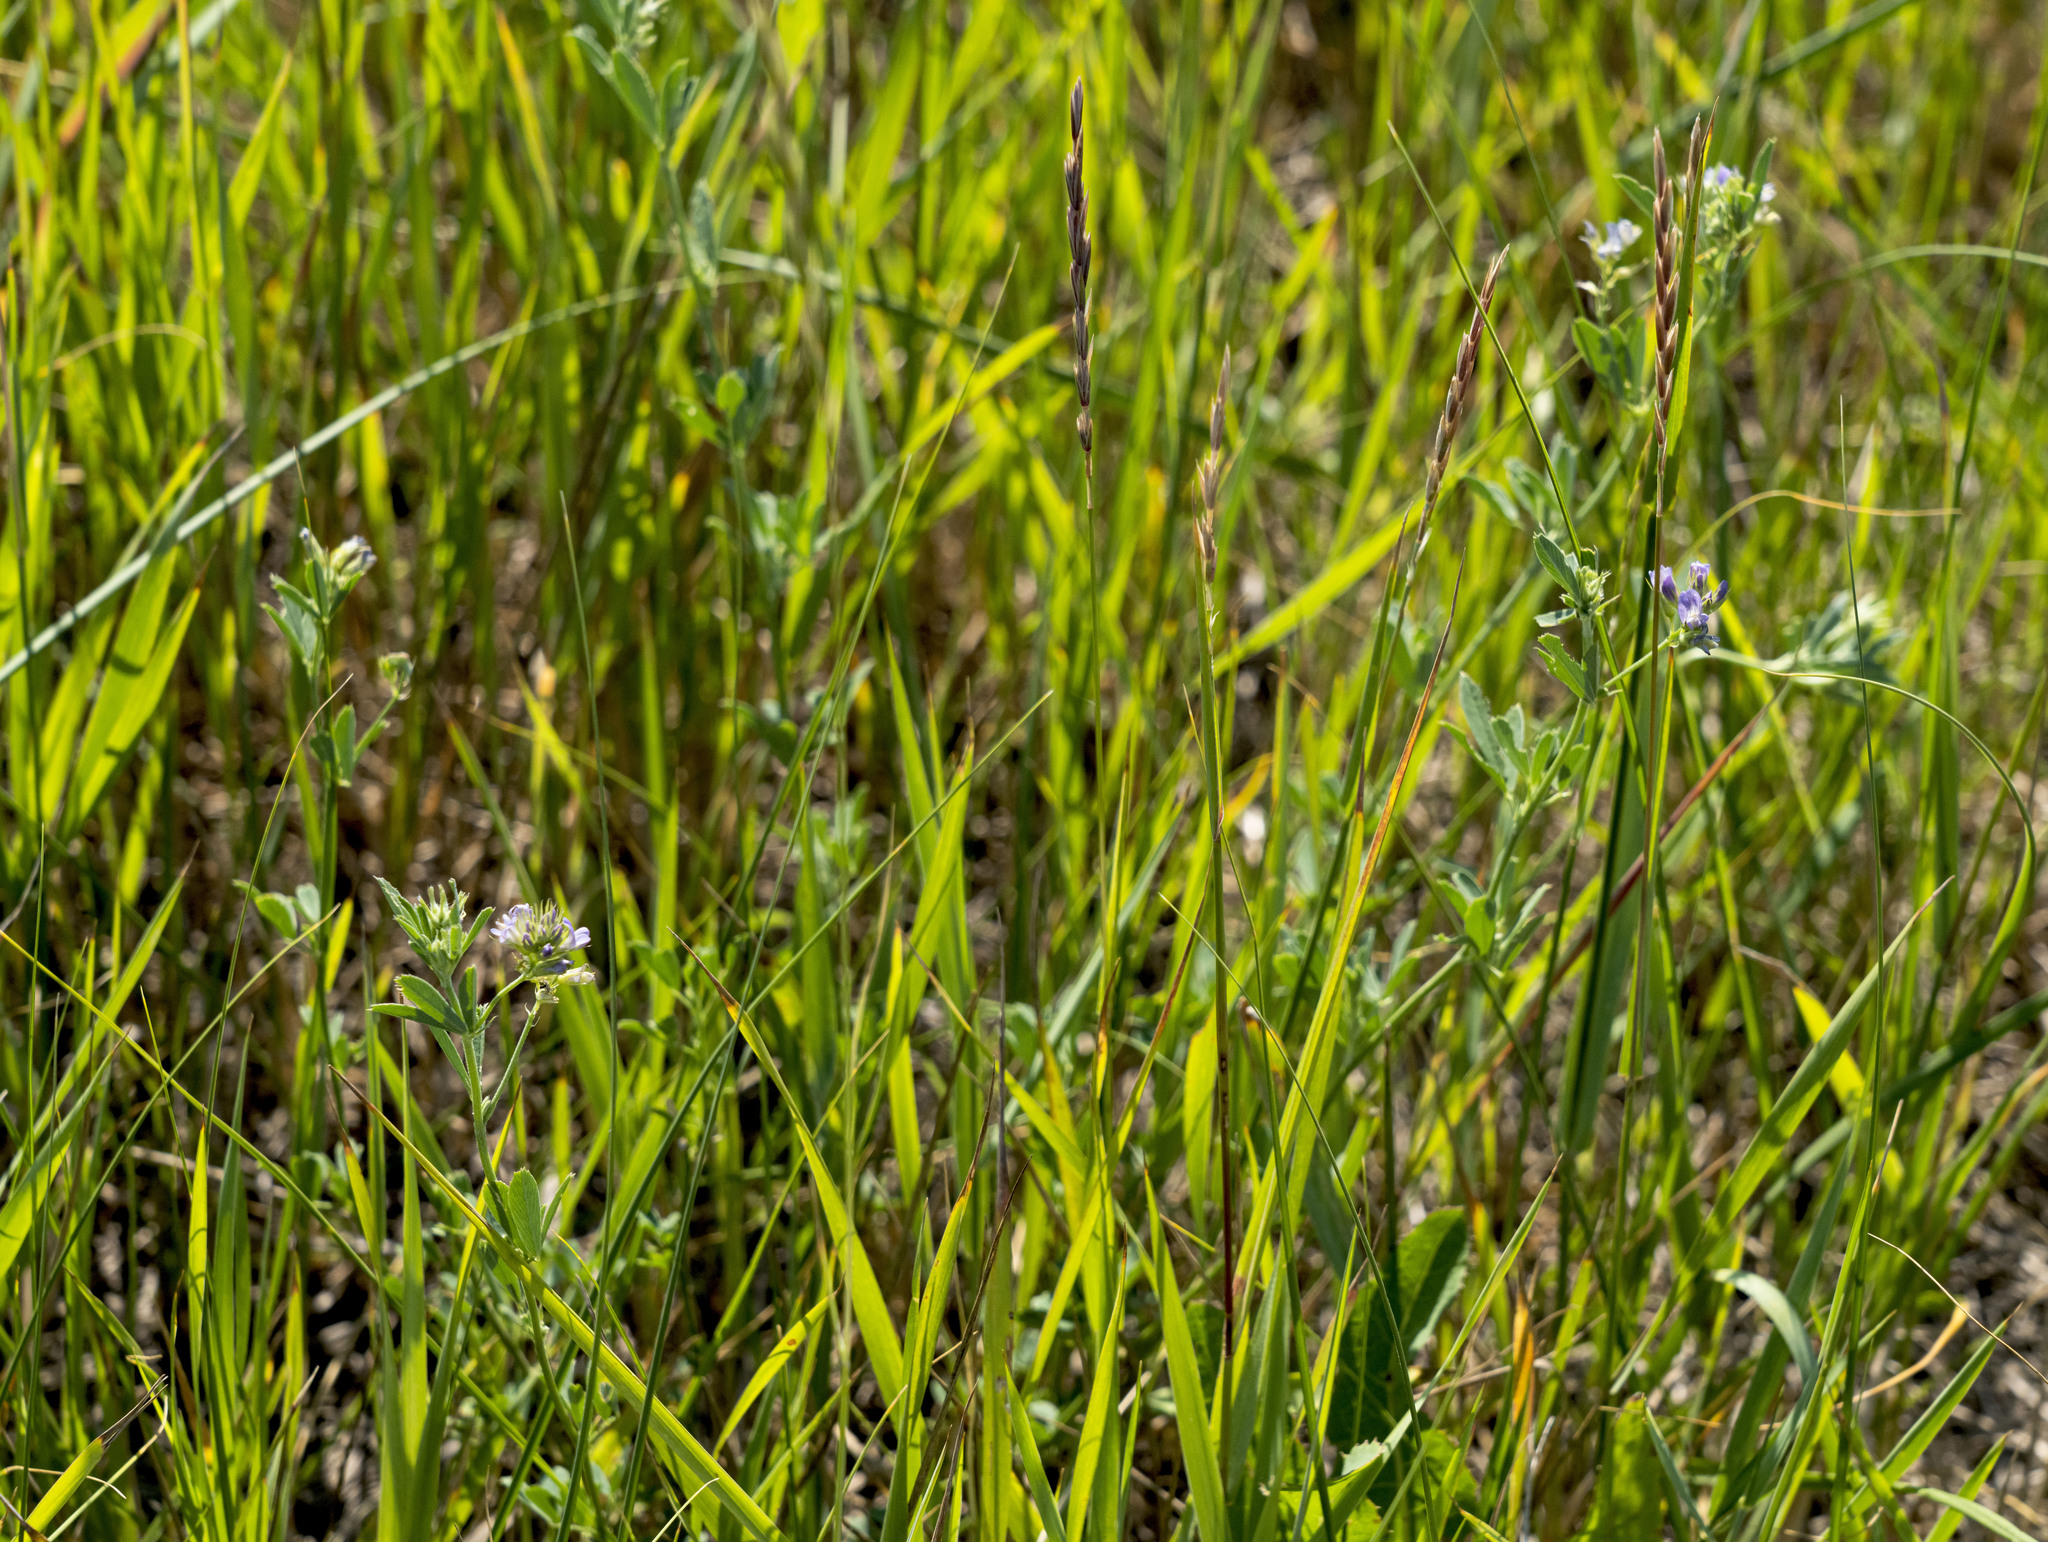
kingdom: Plantae
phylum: Tracheophyta
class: Magnoliopsida
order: Fabales
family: Fabaceae
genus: Medicago
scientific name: Medicago sativa
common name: Alfalfa
